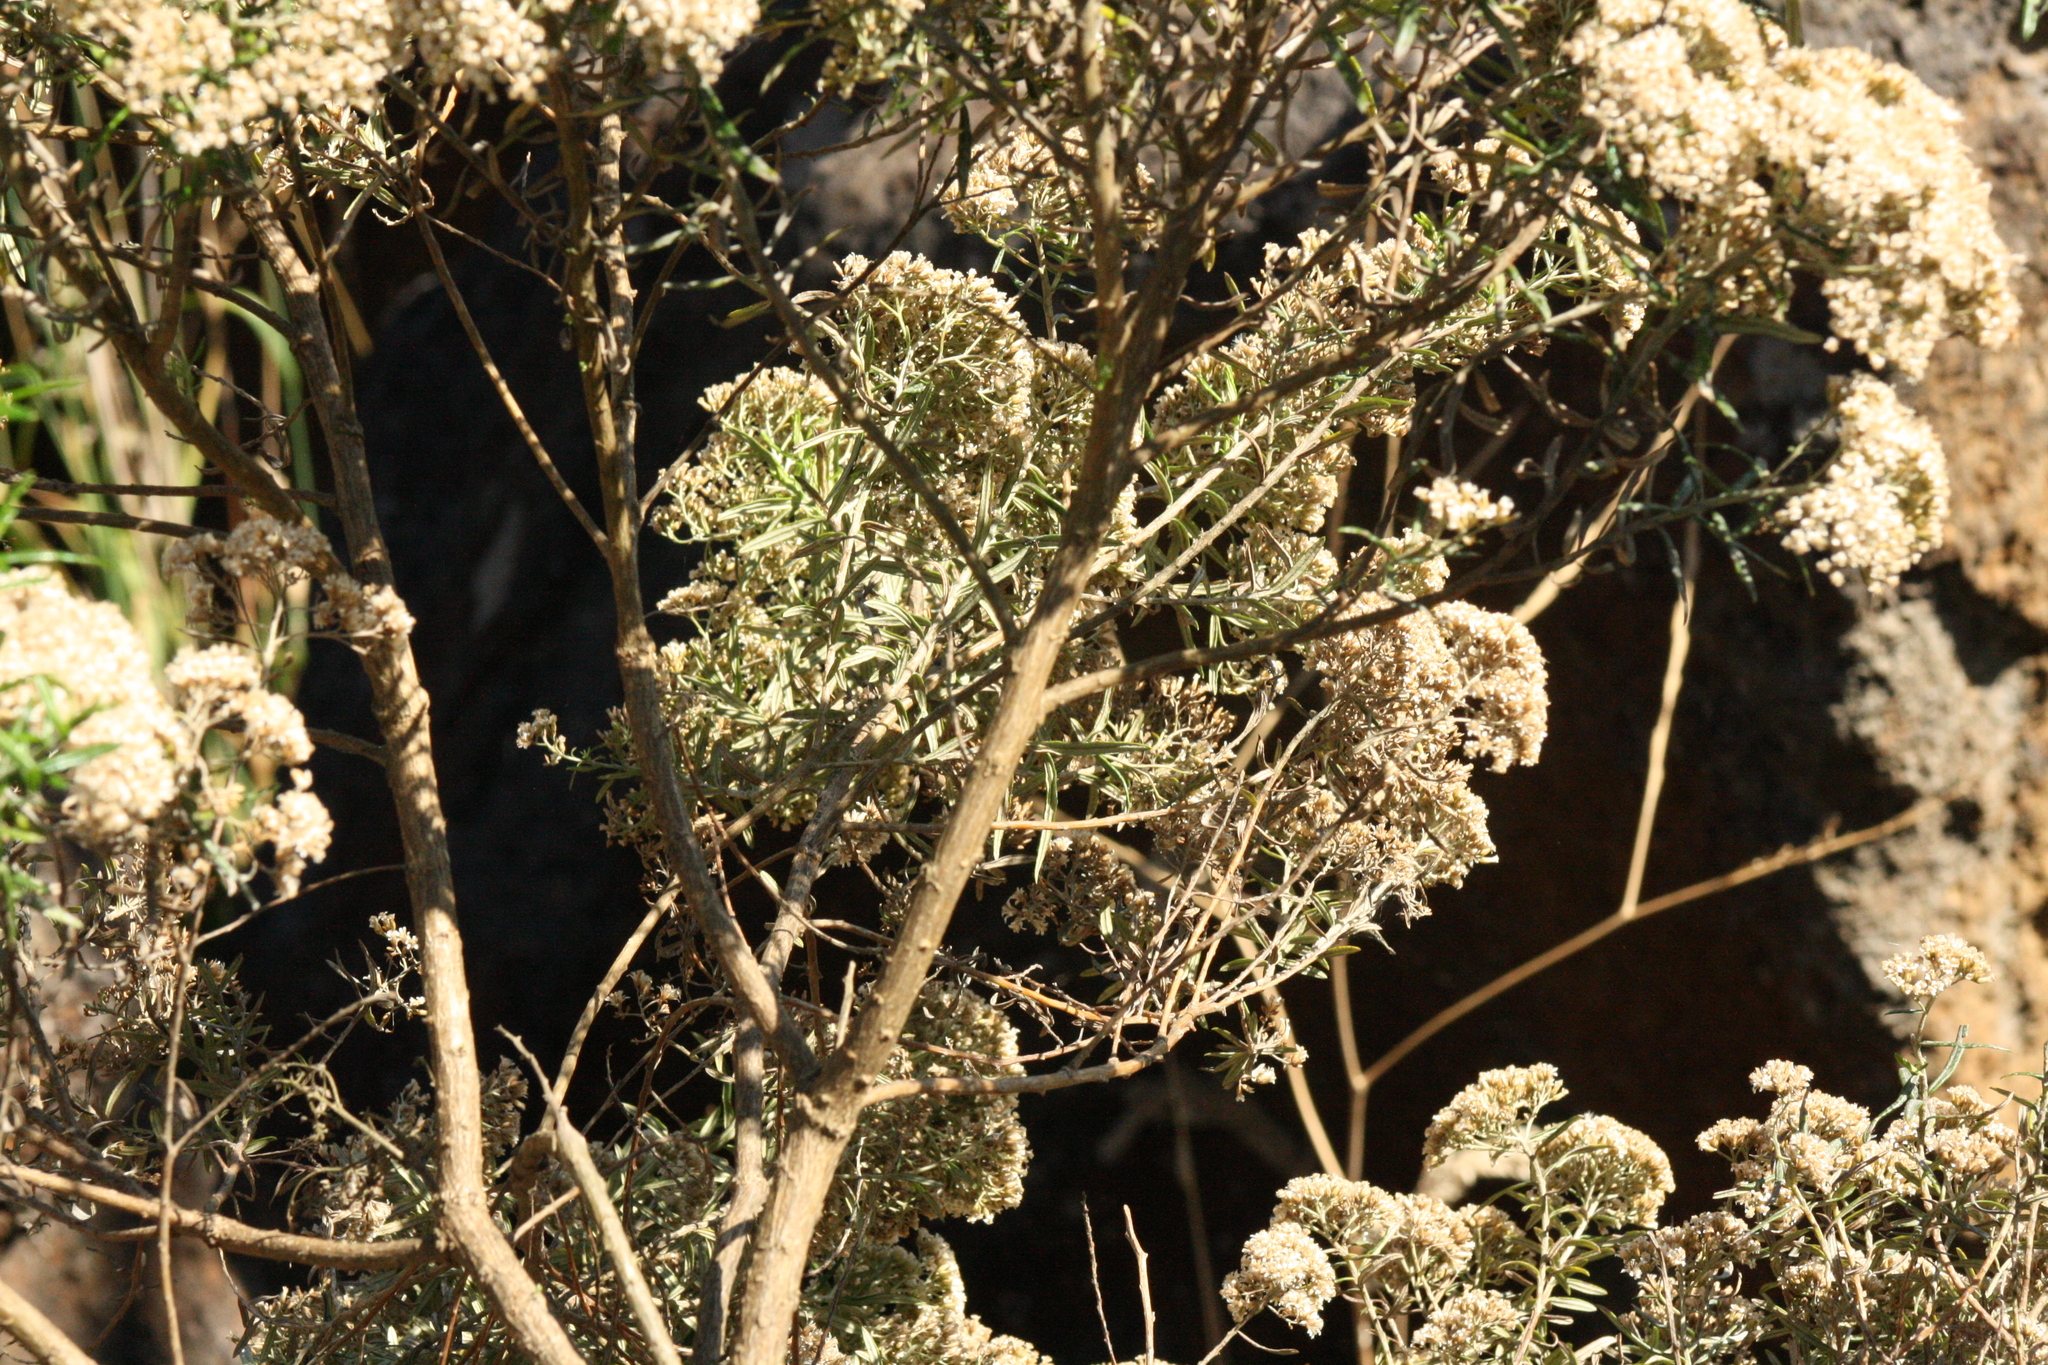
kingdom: Plantae
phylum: Tracheophyta
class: Magnoliopsida
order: Asterales
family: Asteraceae
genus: Ozothamnus
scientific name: Ozothamnus ferrugineus
